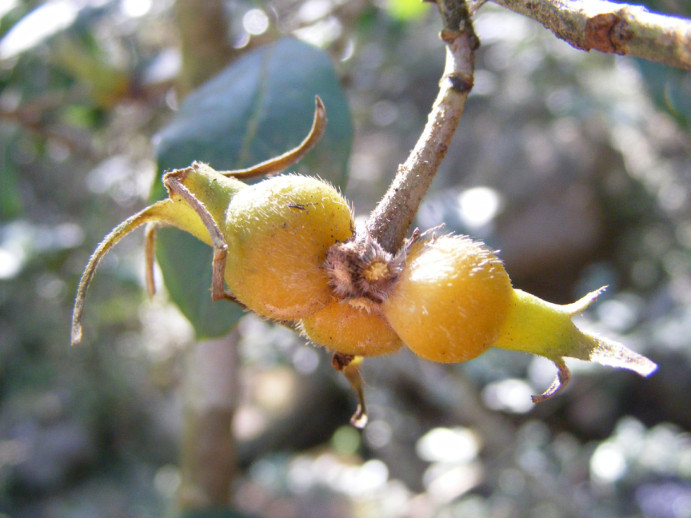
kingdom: Plantae
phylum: Tracheophyta
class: Magnoliopsida
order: Gentianales
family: Rubiaceae
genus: Burchellia
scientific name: Burchellia bubalina
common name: Wild pomegranate
